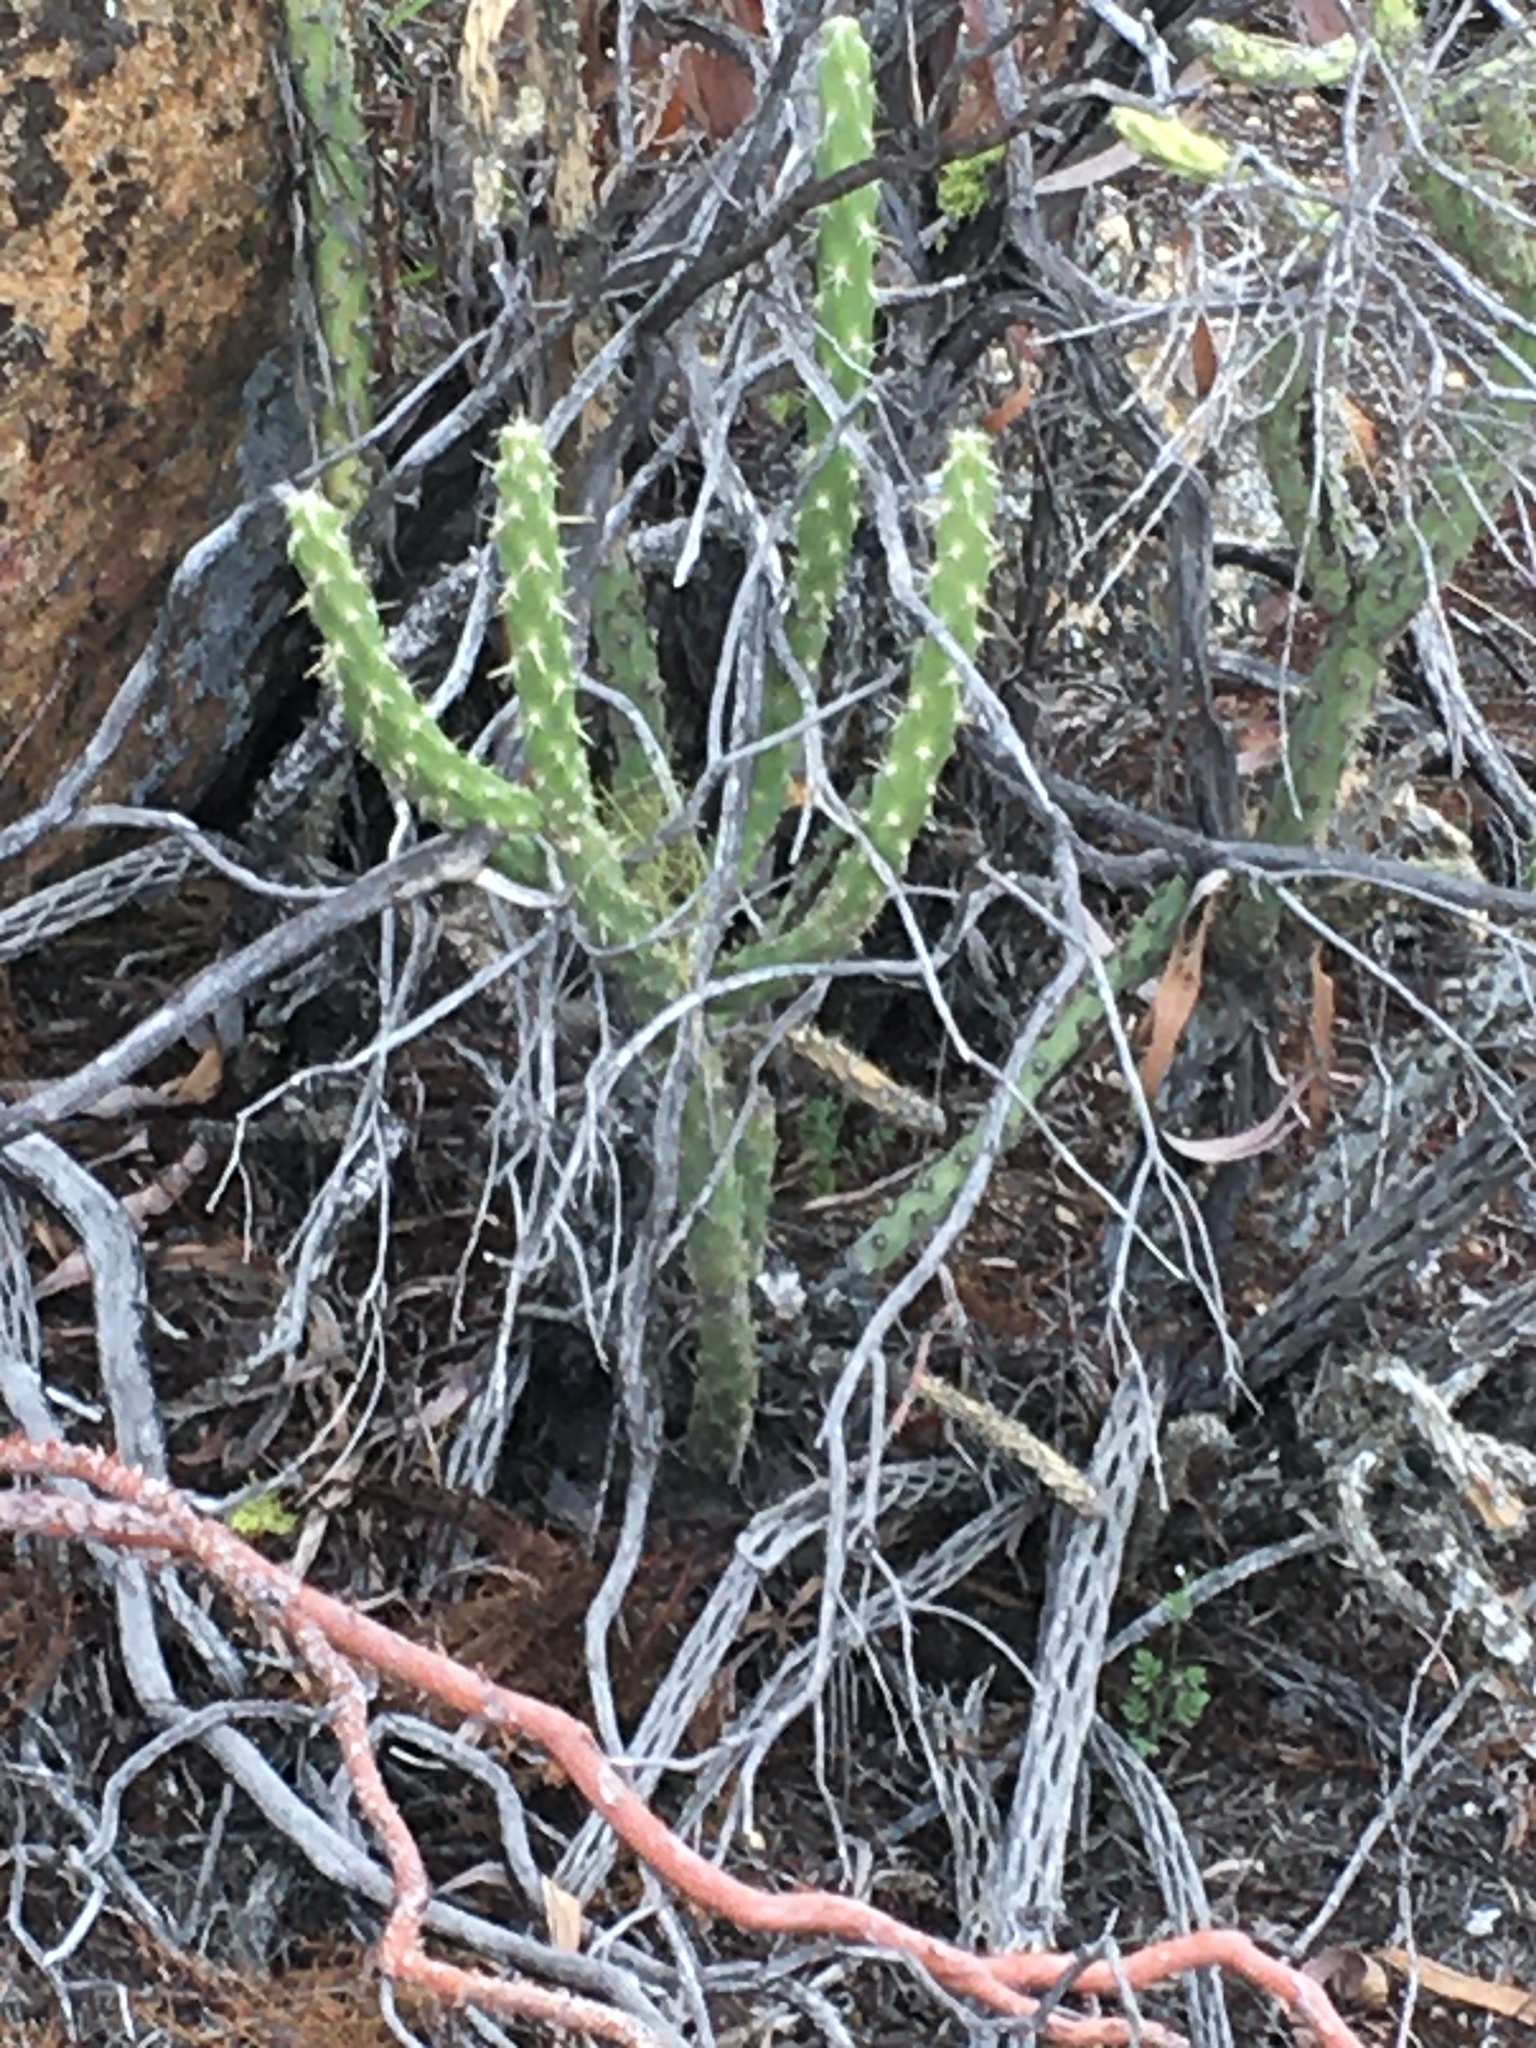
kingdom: Plantae
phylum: Tracheophyta
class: Magnoliopsida
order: Caryophyllales
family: Cactaceae
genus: Cylindropuntia
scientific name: Cylindropuntia bernardina
